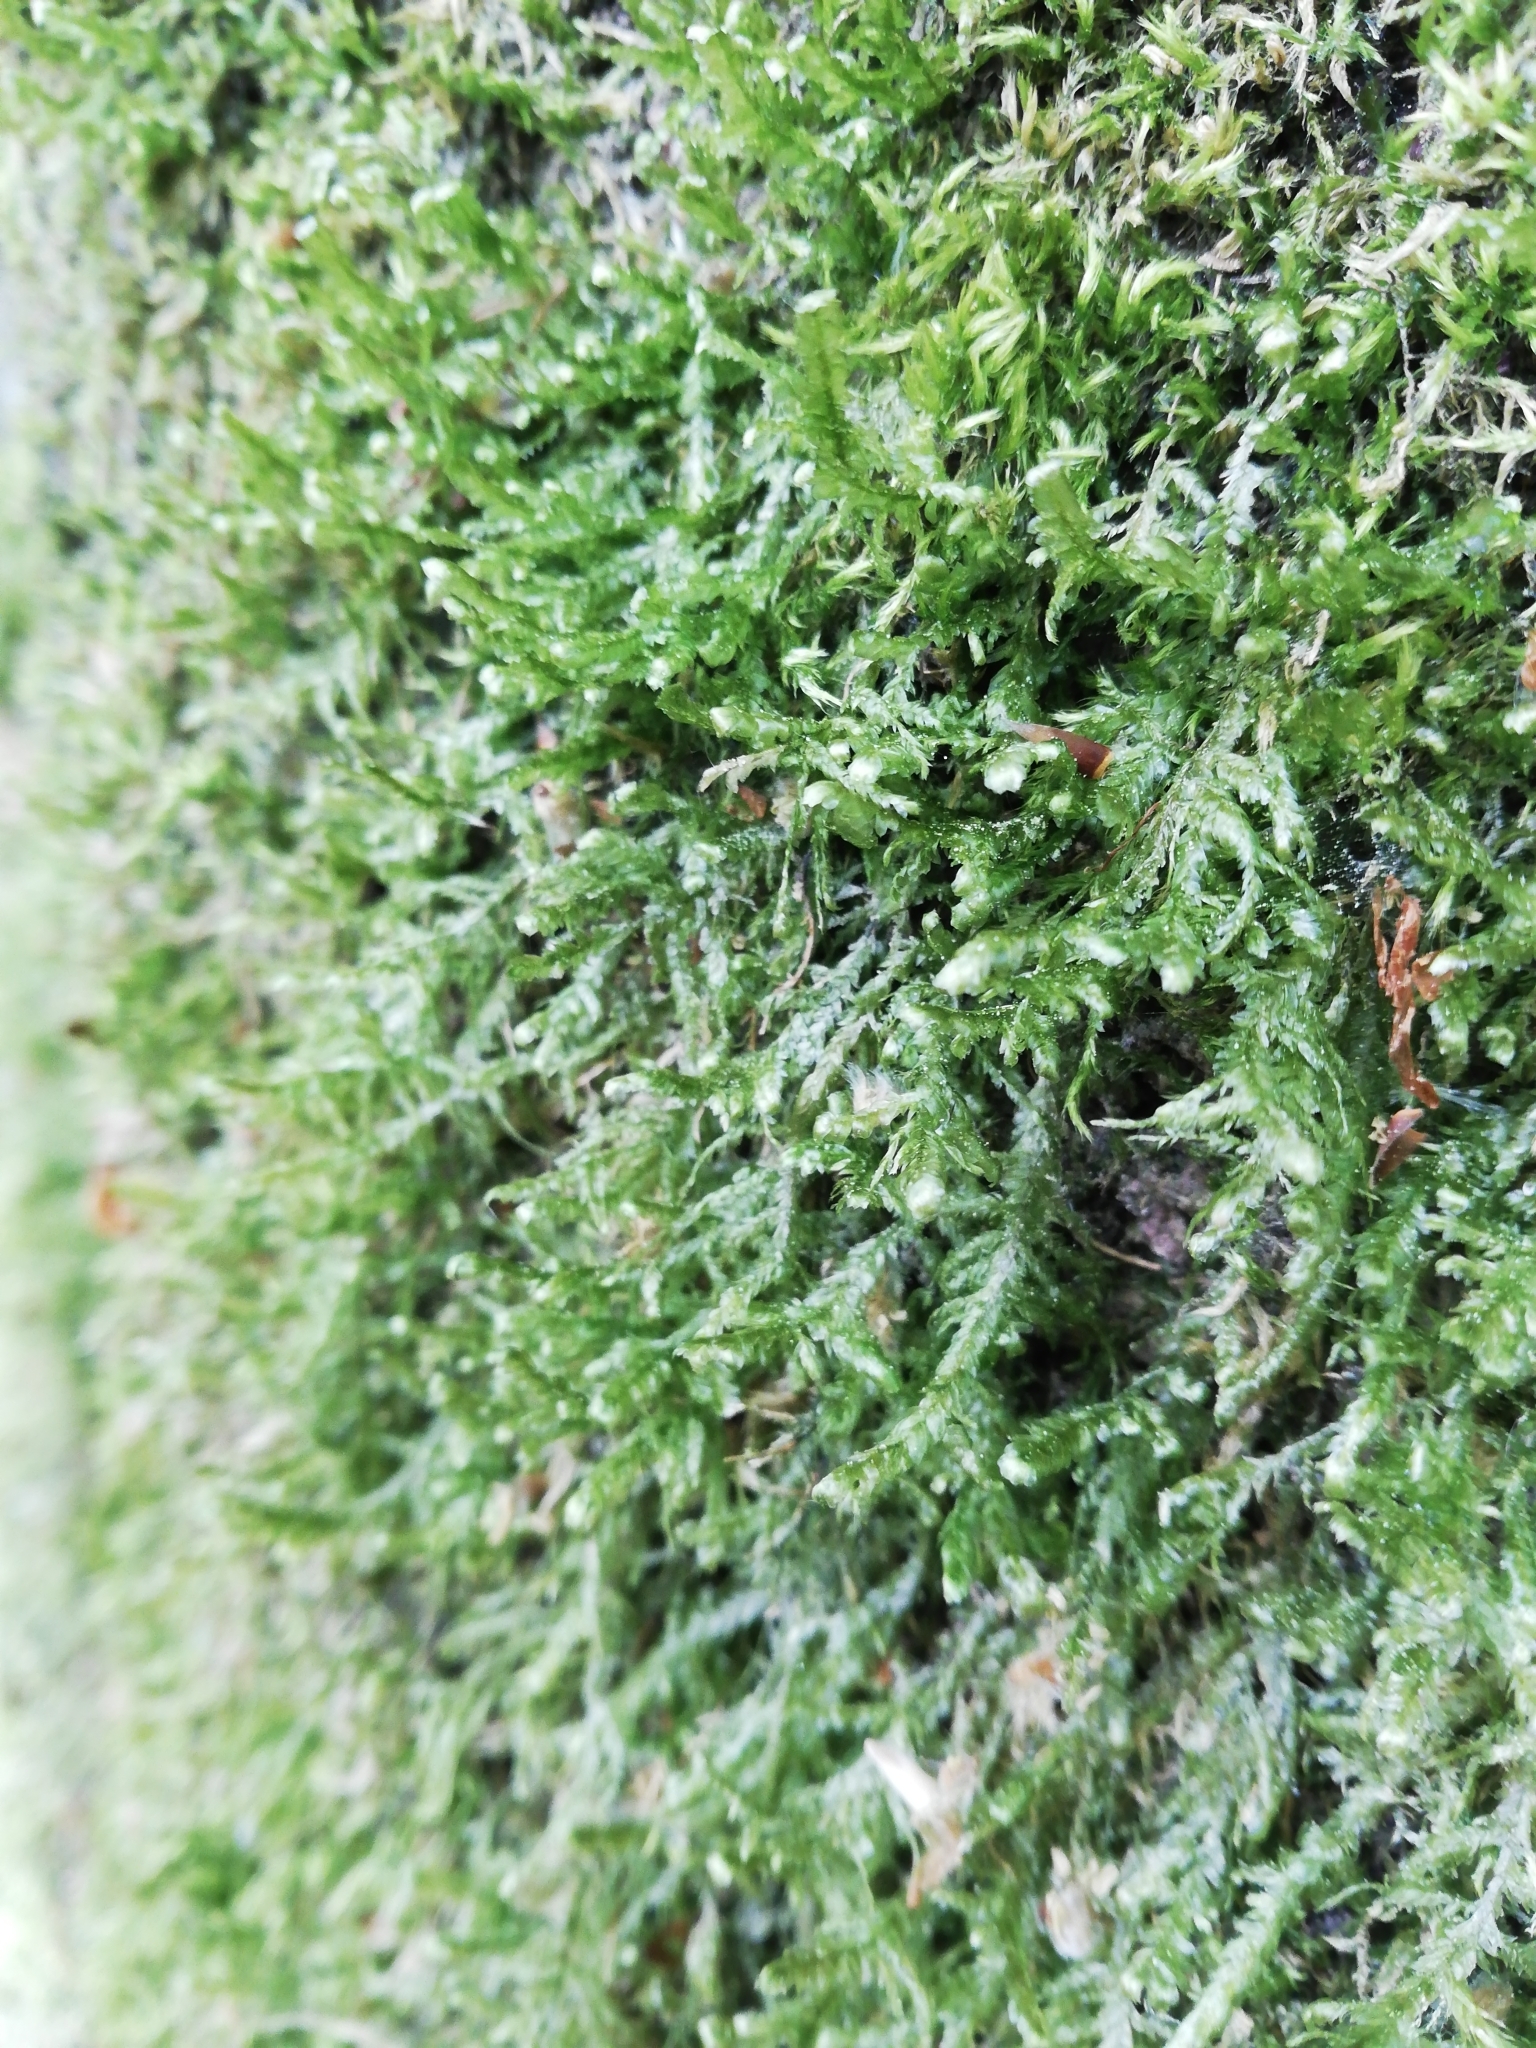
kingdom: Plantae
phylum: Bryophyta
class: Bryopsida
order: Hypnales
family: Neckeraceae
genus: Alleniella
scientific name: Alleniella complanata
